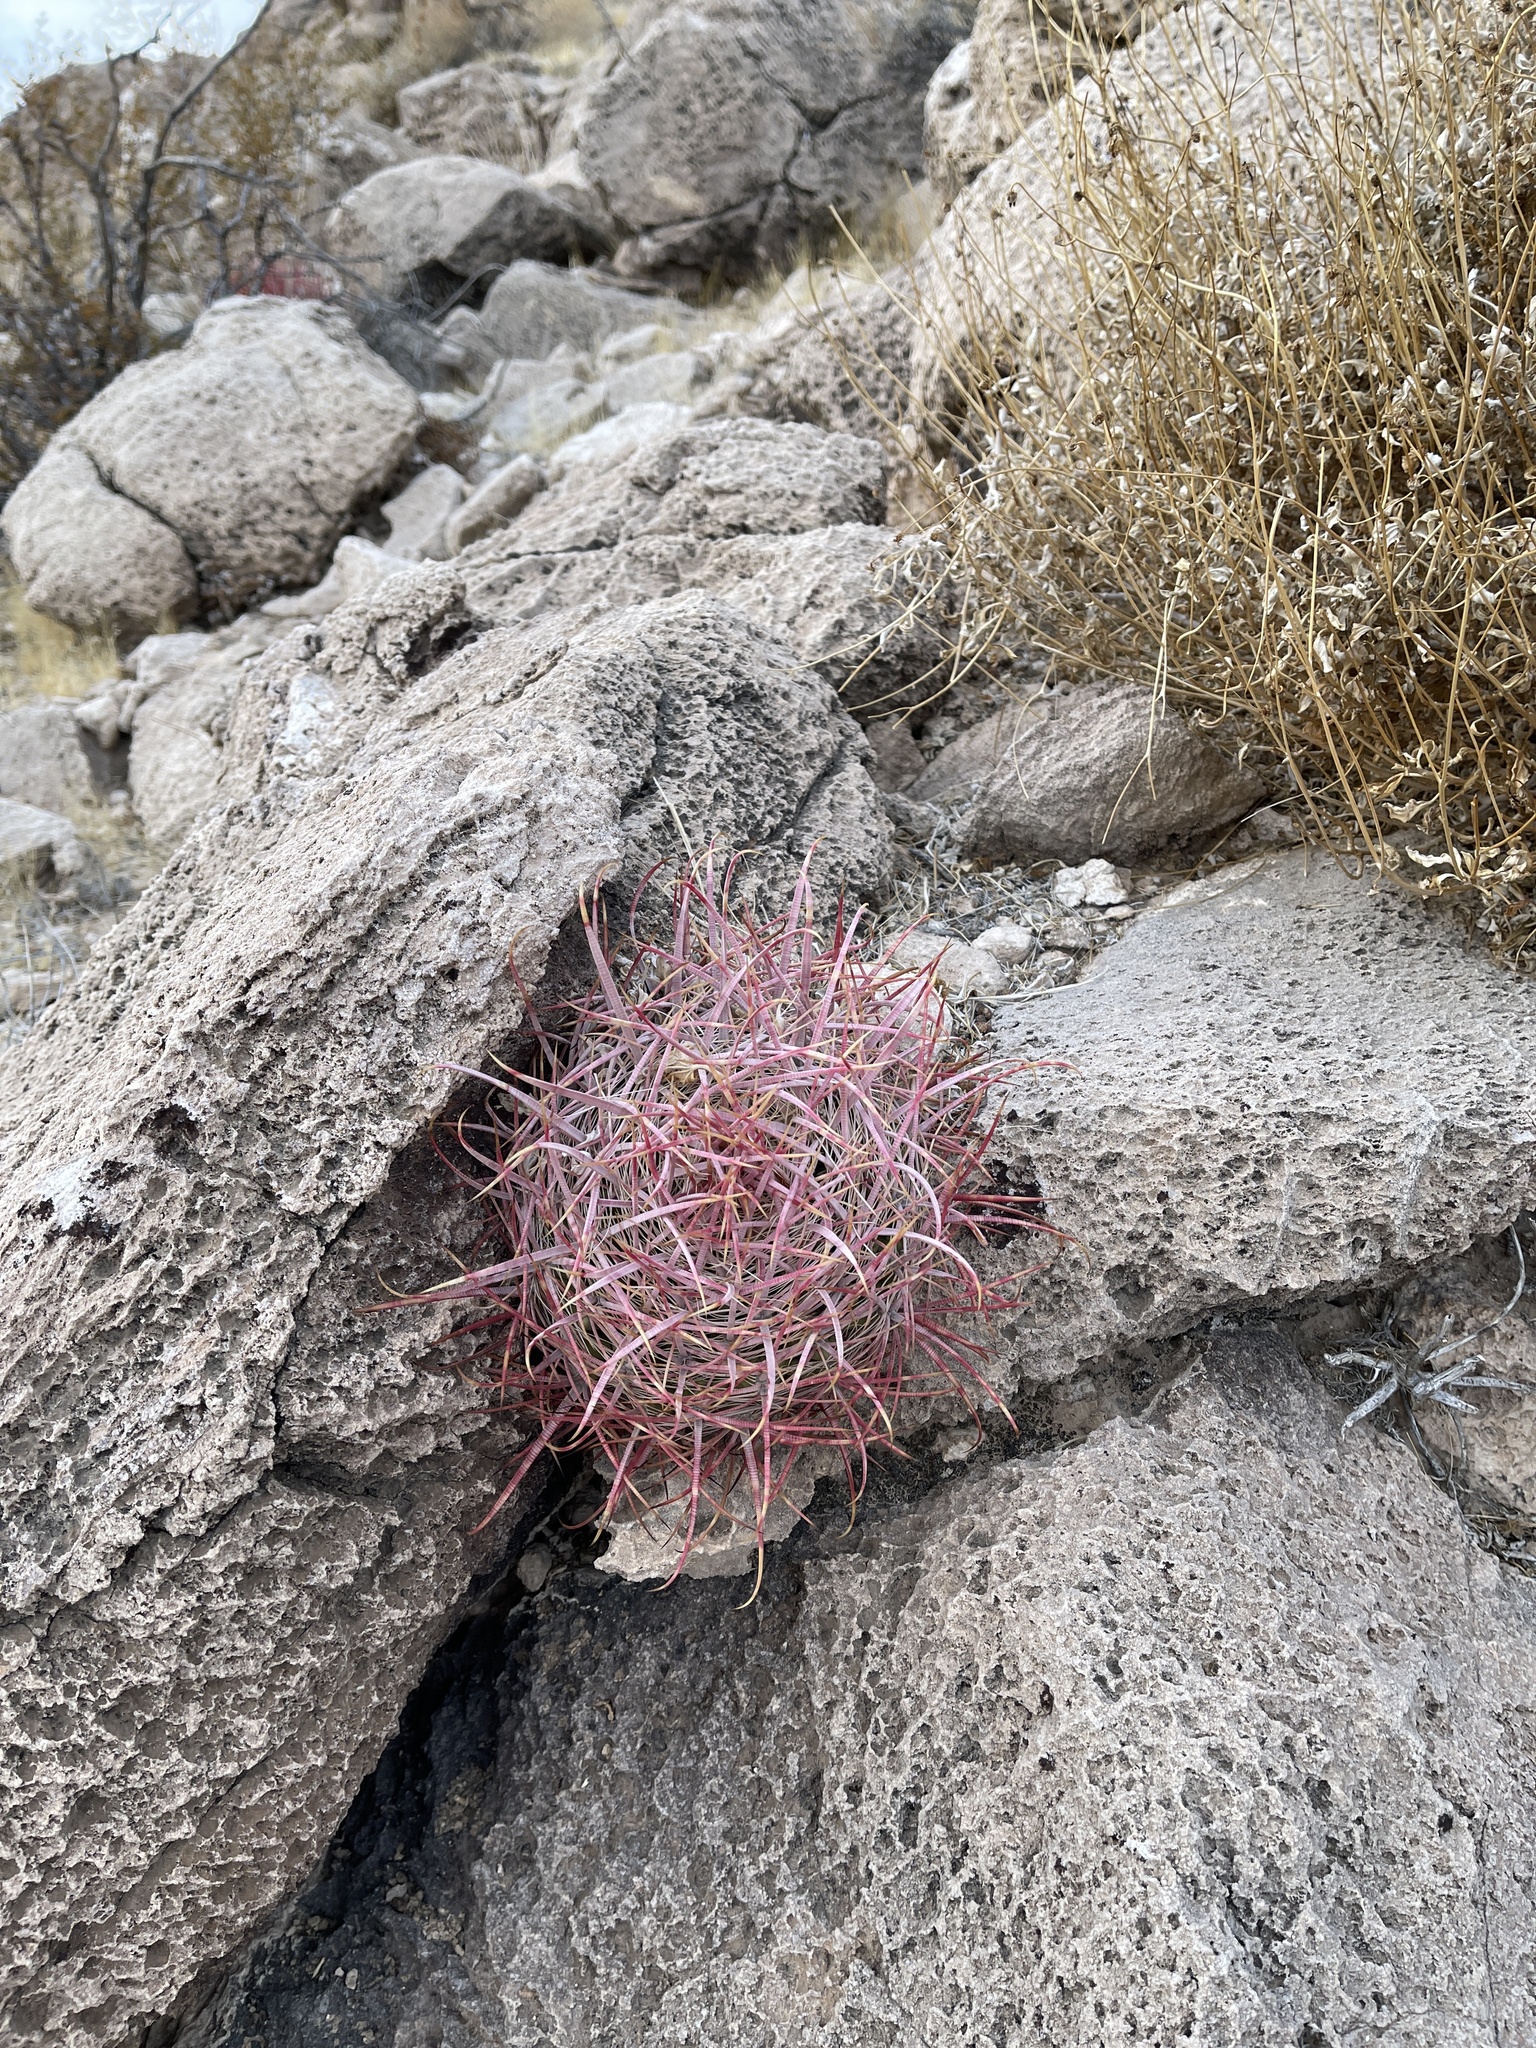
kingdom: Plantae
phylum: Tracheophyta
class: Magnoliopsida
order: Caryophyllales
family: Cactaceae
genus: Ferocactus
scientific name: Ferocactus cylindraceus
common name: California barrel cactus
